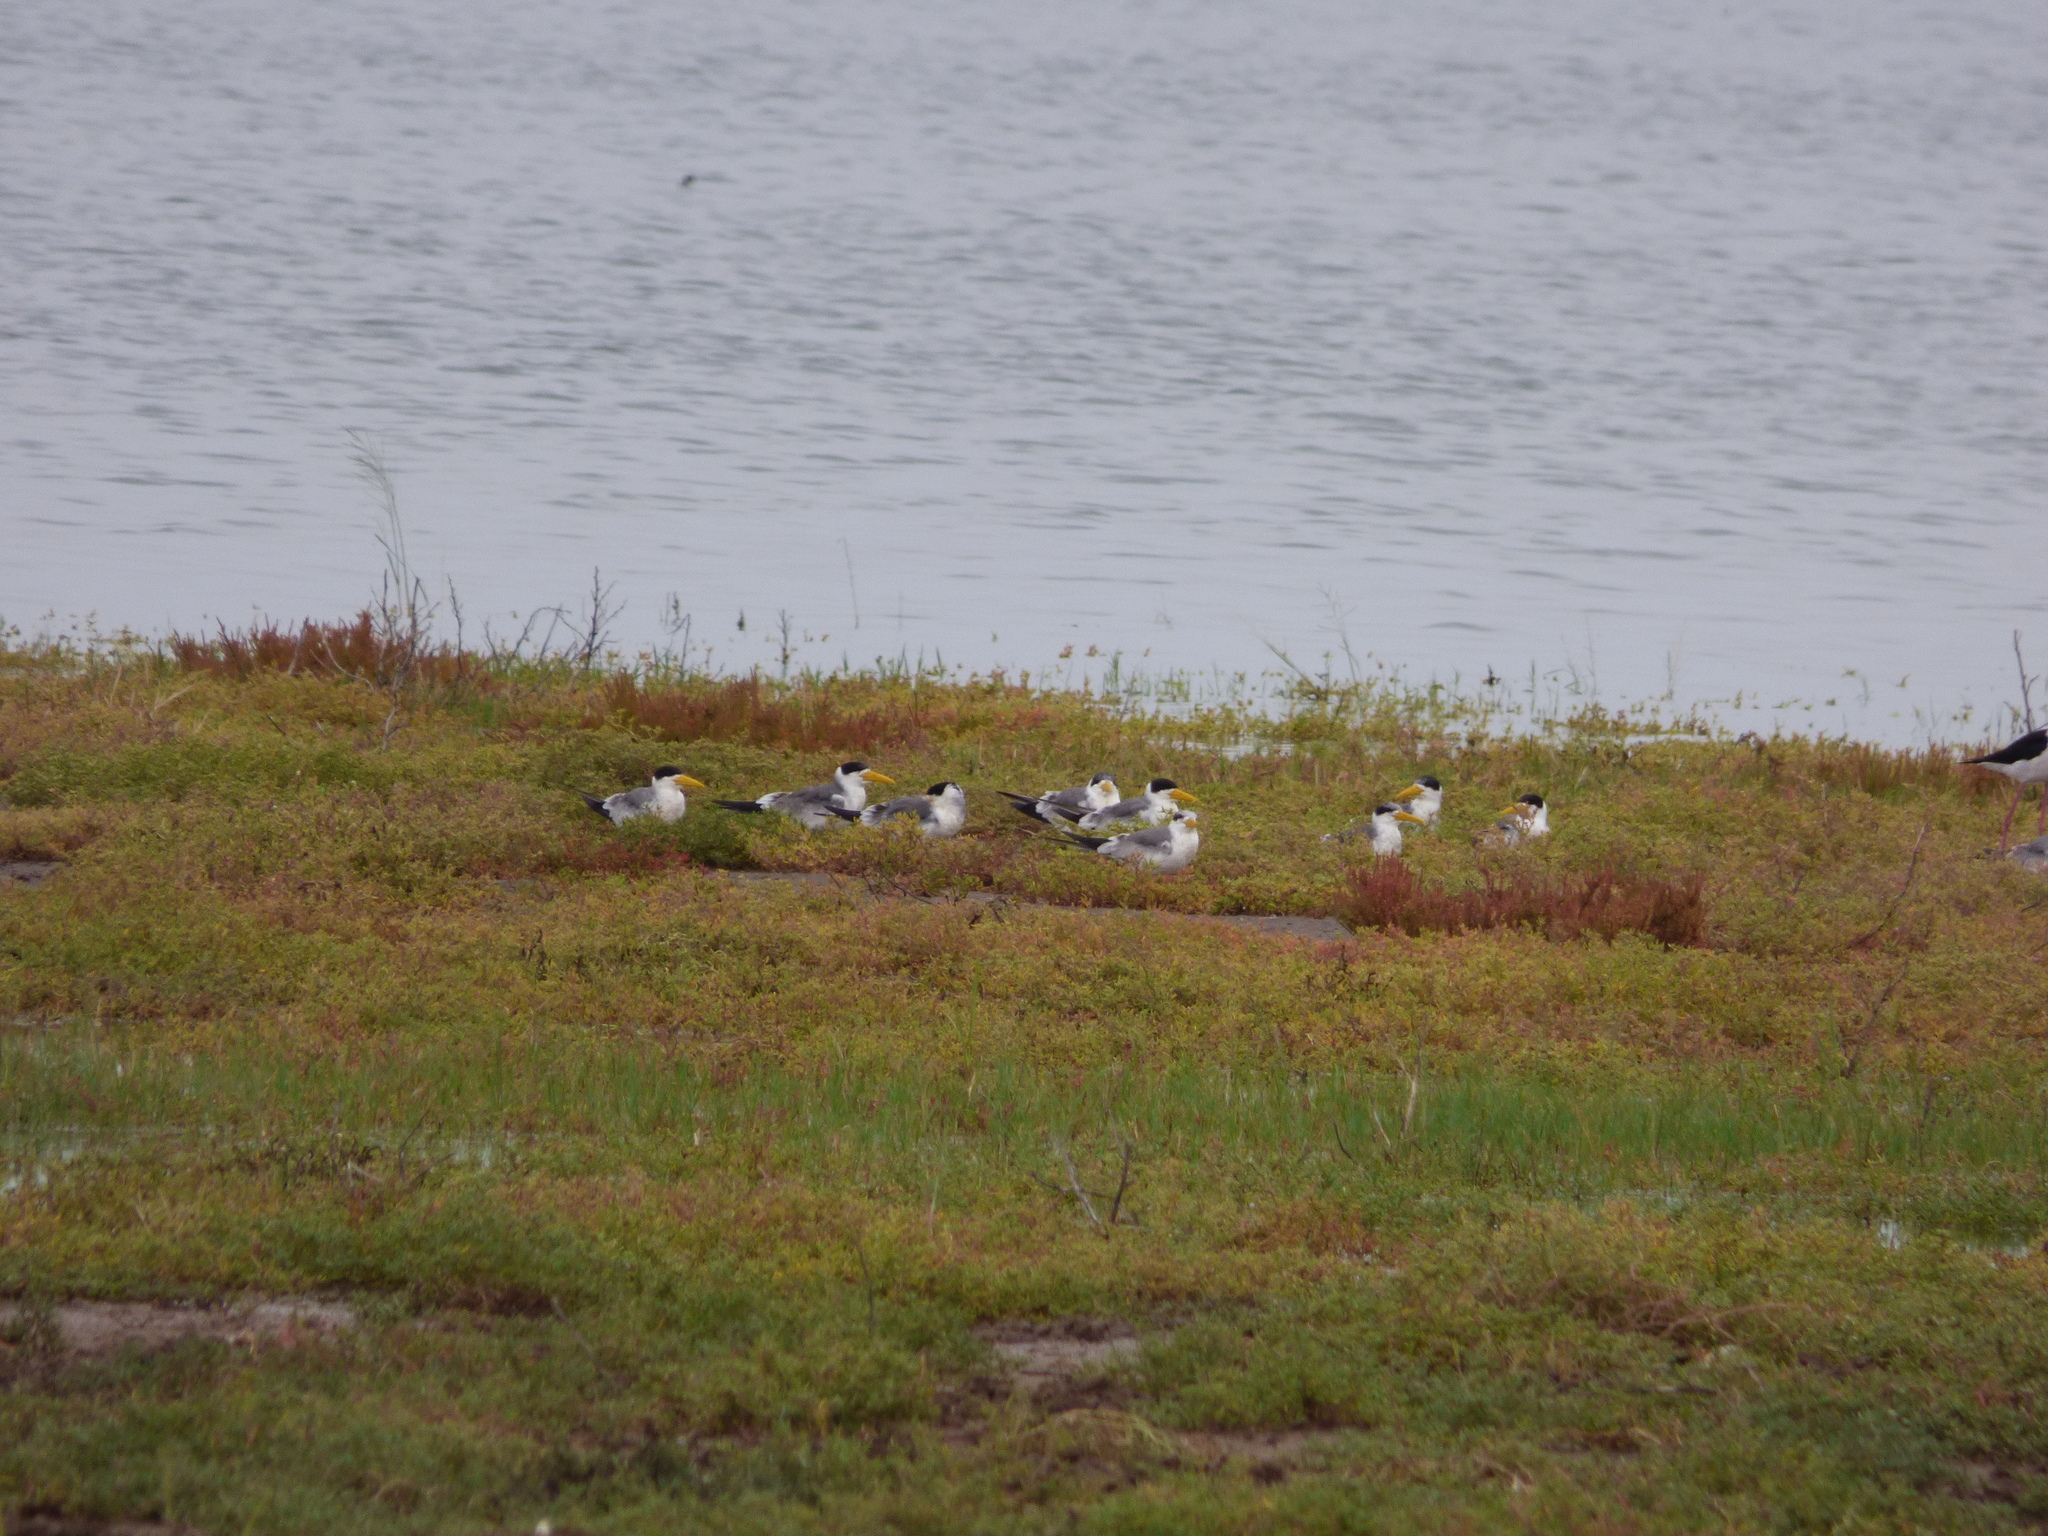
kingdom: Animalia
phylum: Chordata
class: Aves
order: Charadriiformes
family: Laridae
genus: Phaetusa
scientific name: Phaetusa simplex
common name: Large-billed tern
